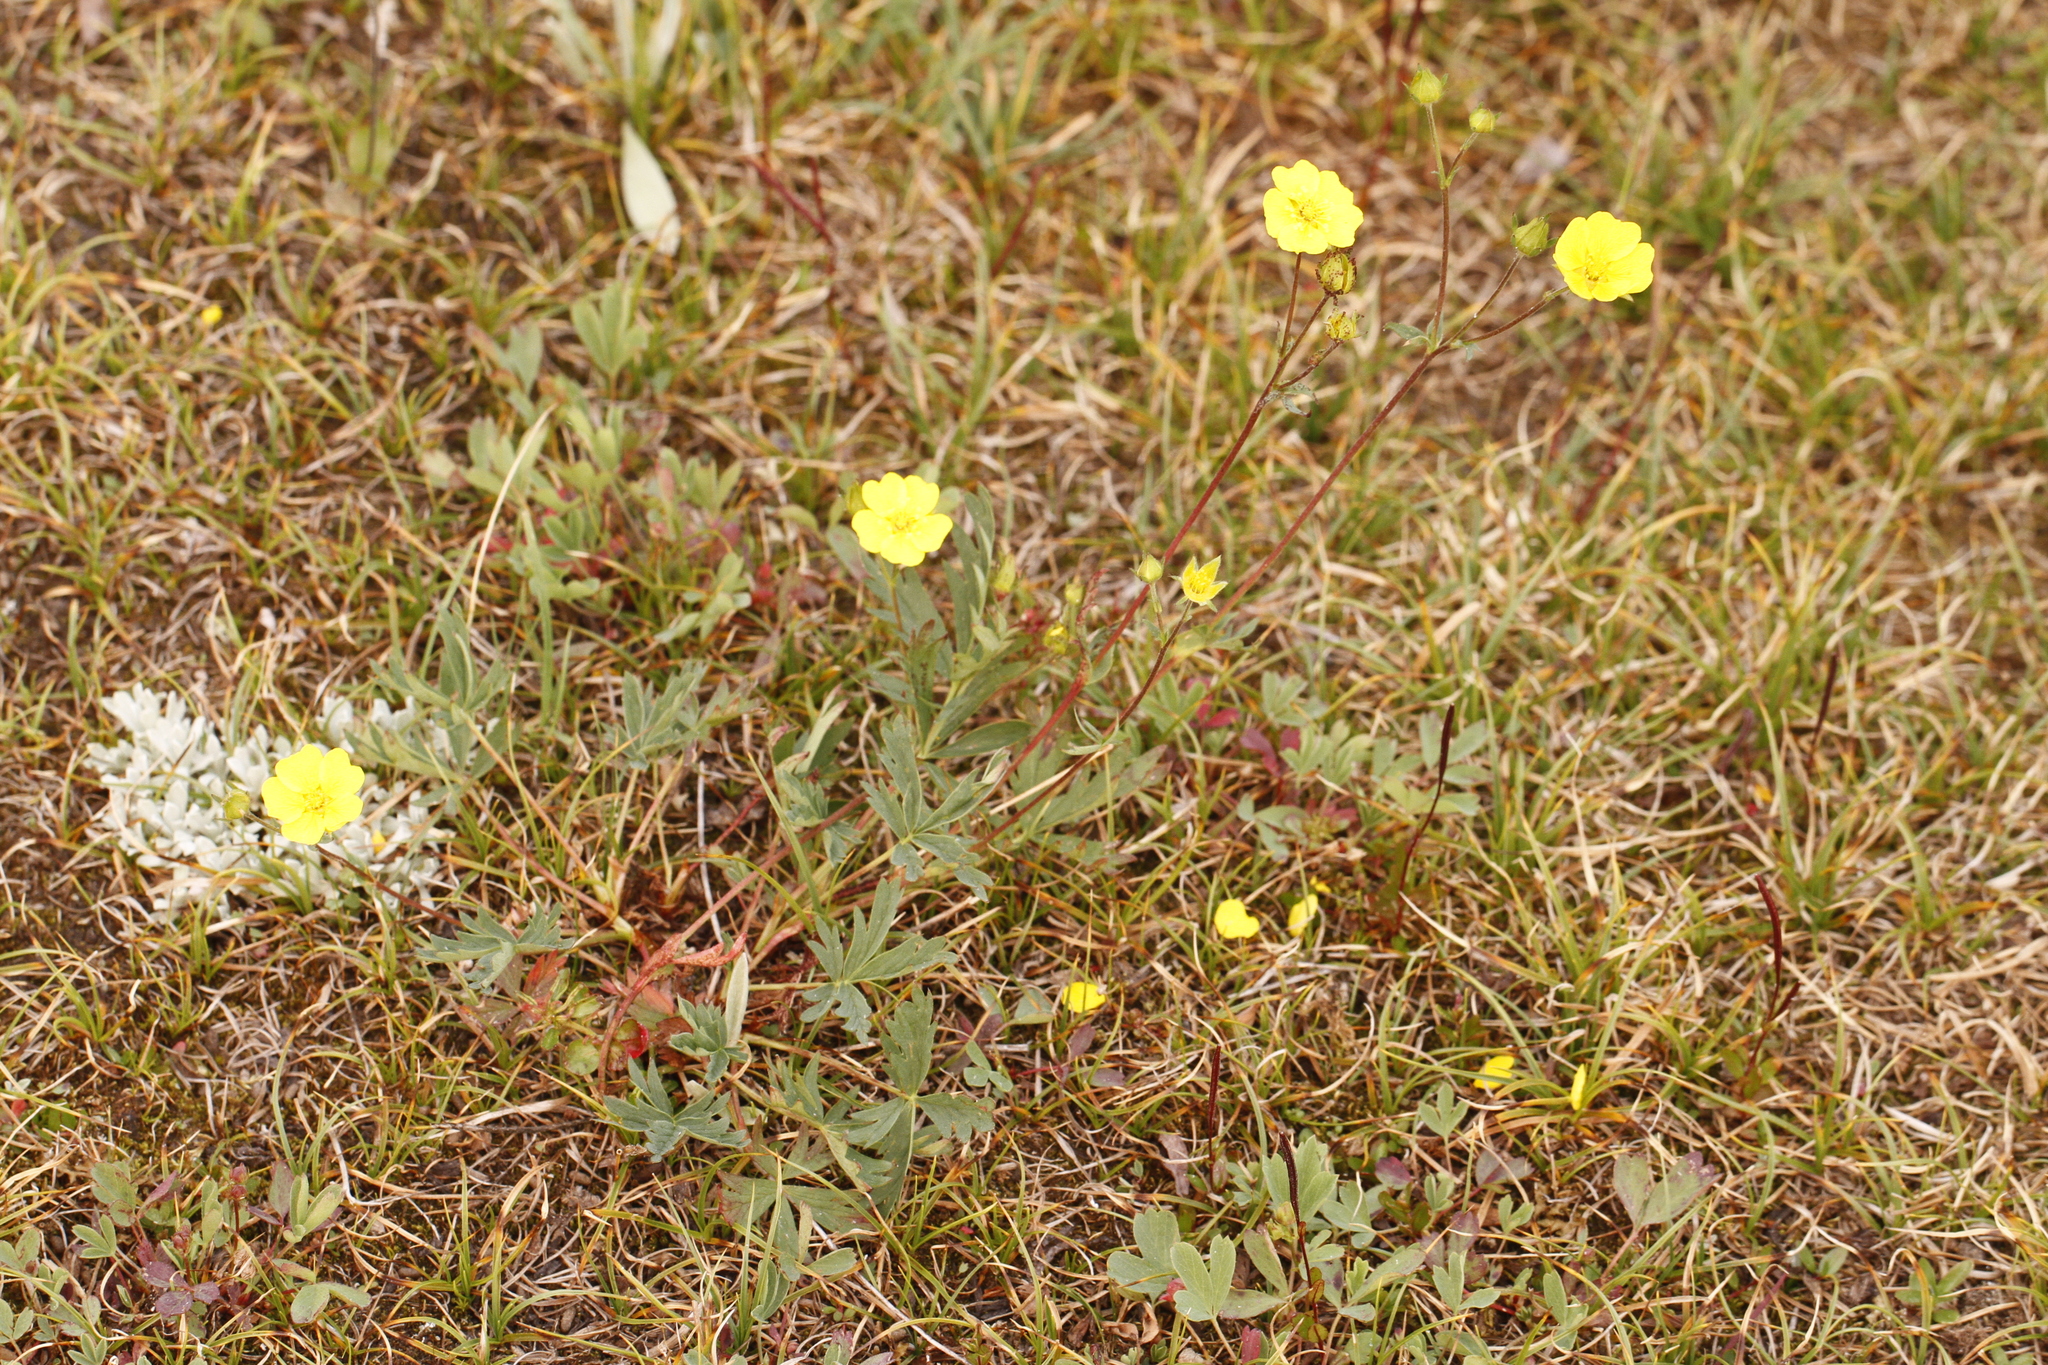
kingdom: Plantae
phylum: Tracheophyta
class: Magnoliopsida
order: Rosales
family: Rosaceae
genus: Potentilla
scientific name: Potentilla glaucophylla
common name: Blue-leaved cinquefoil
